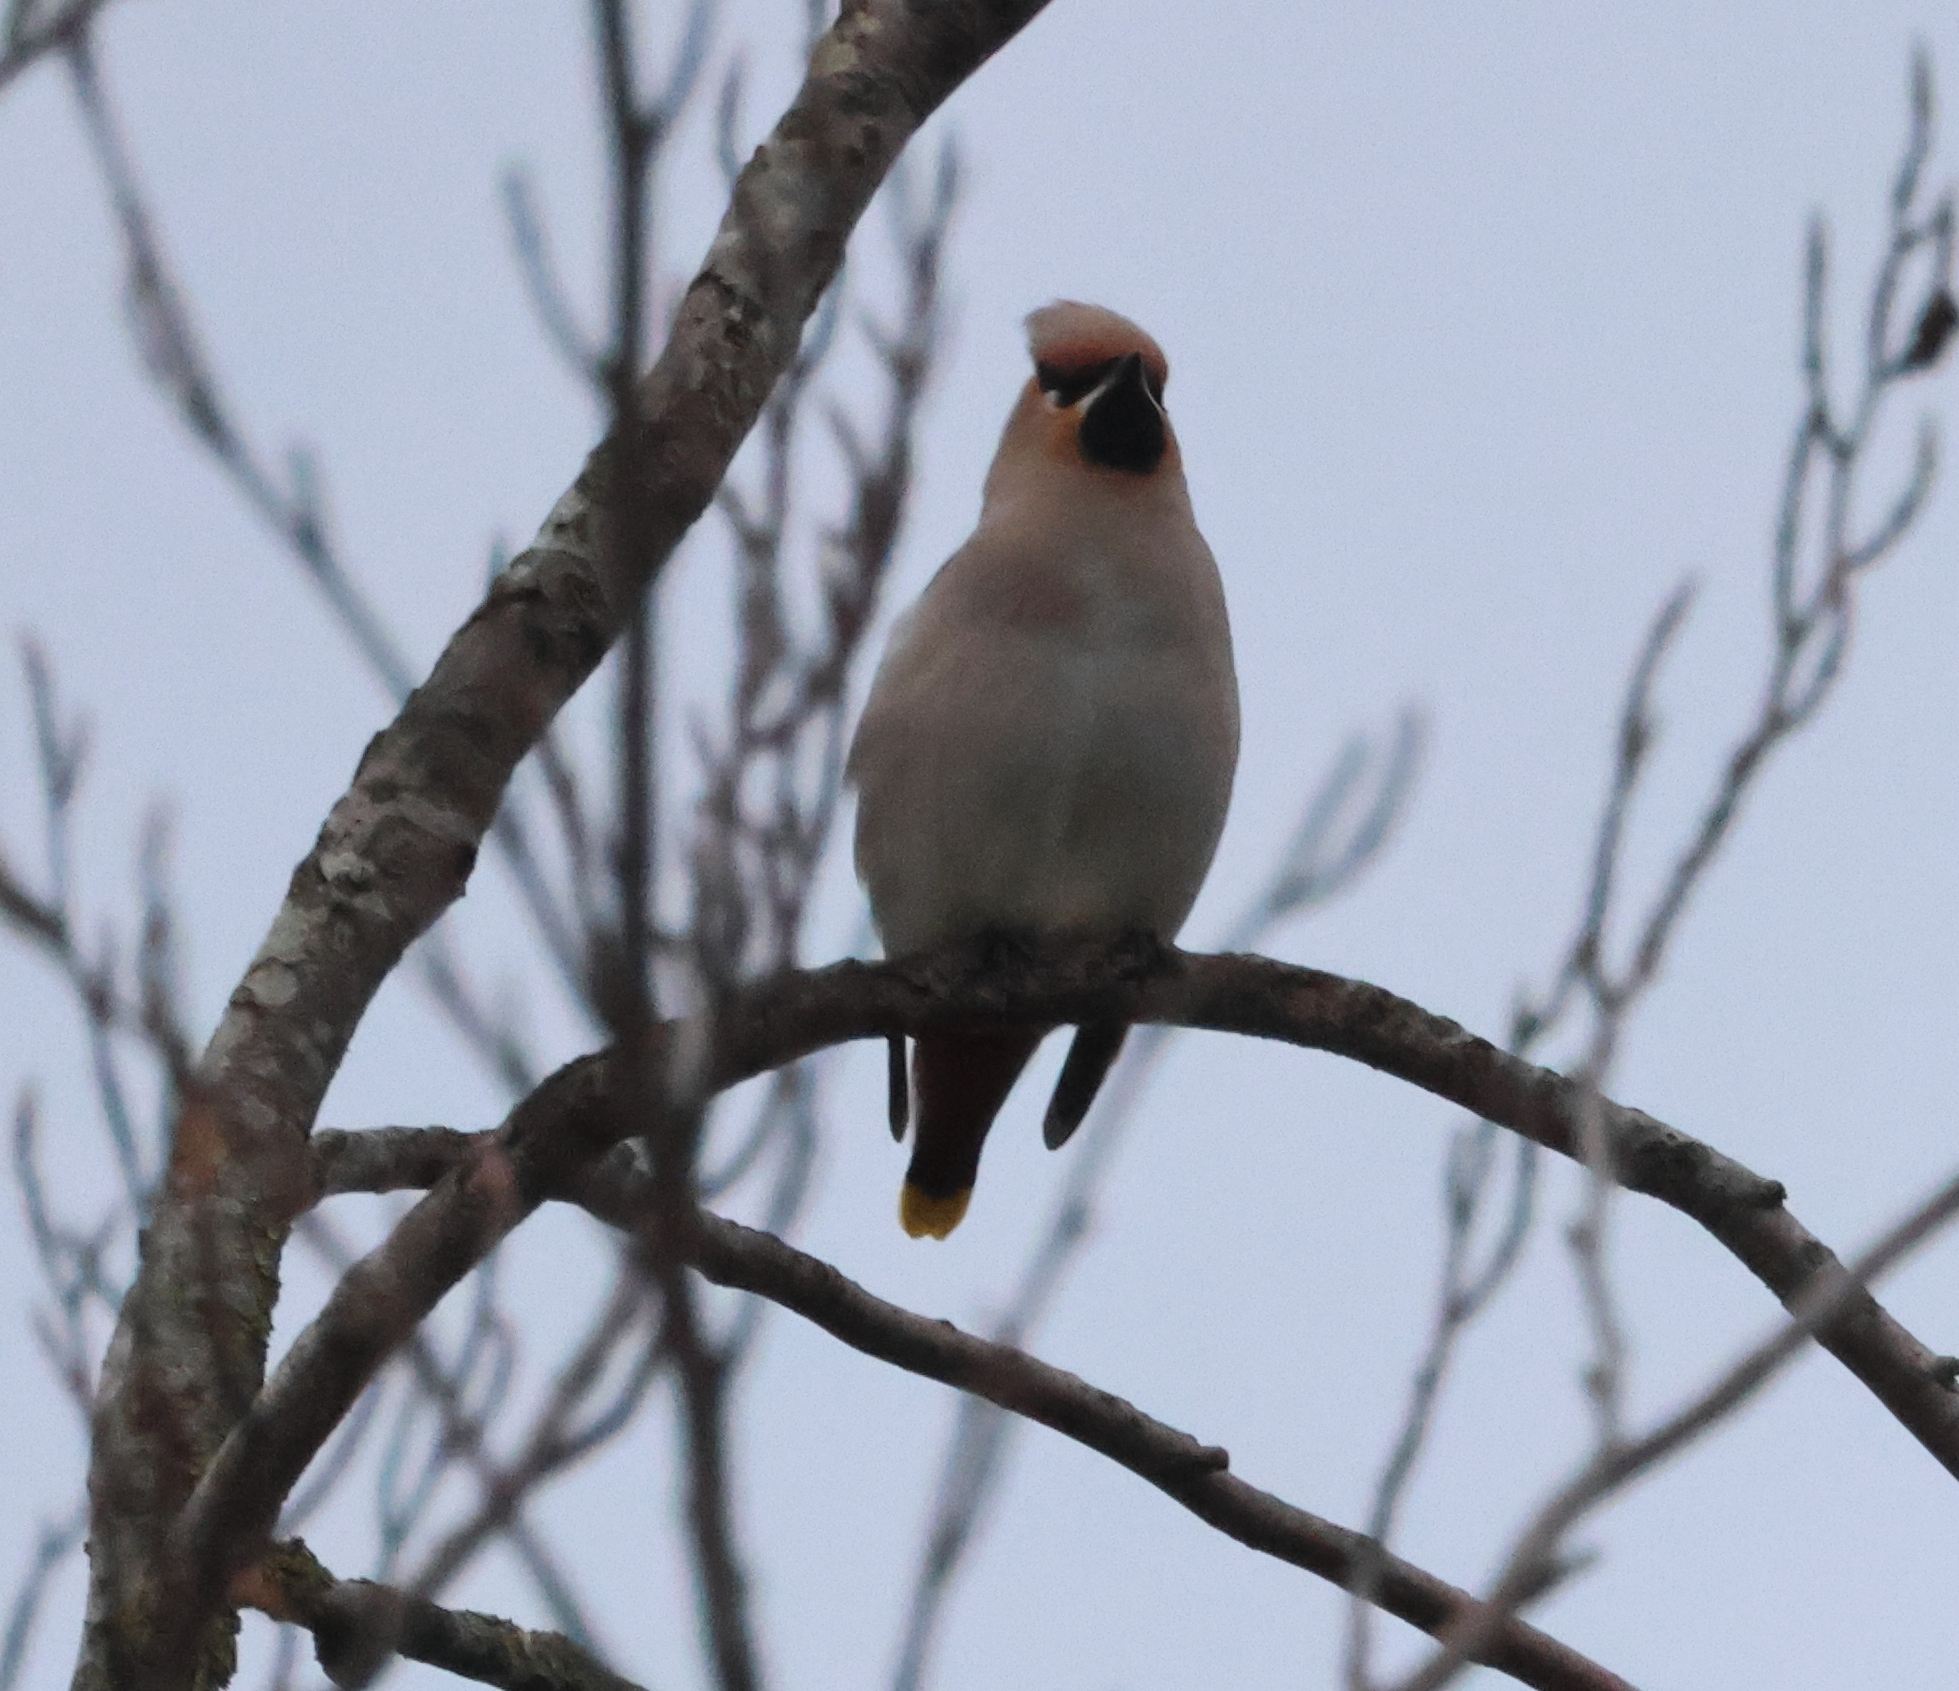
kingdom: Animalia
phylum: Chordata
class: Aves
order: Passeriformes
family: Bombycillidae
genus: Bombycilla
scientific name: Bombycilla garrulus
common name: Bohemian waxwing
